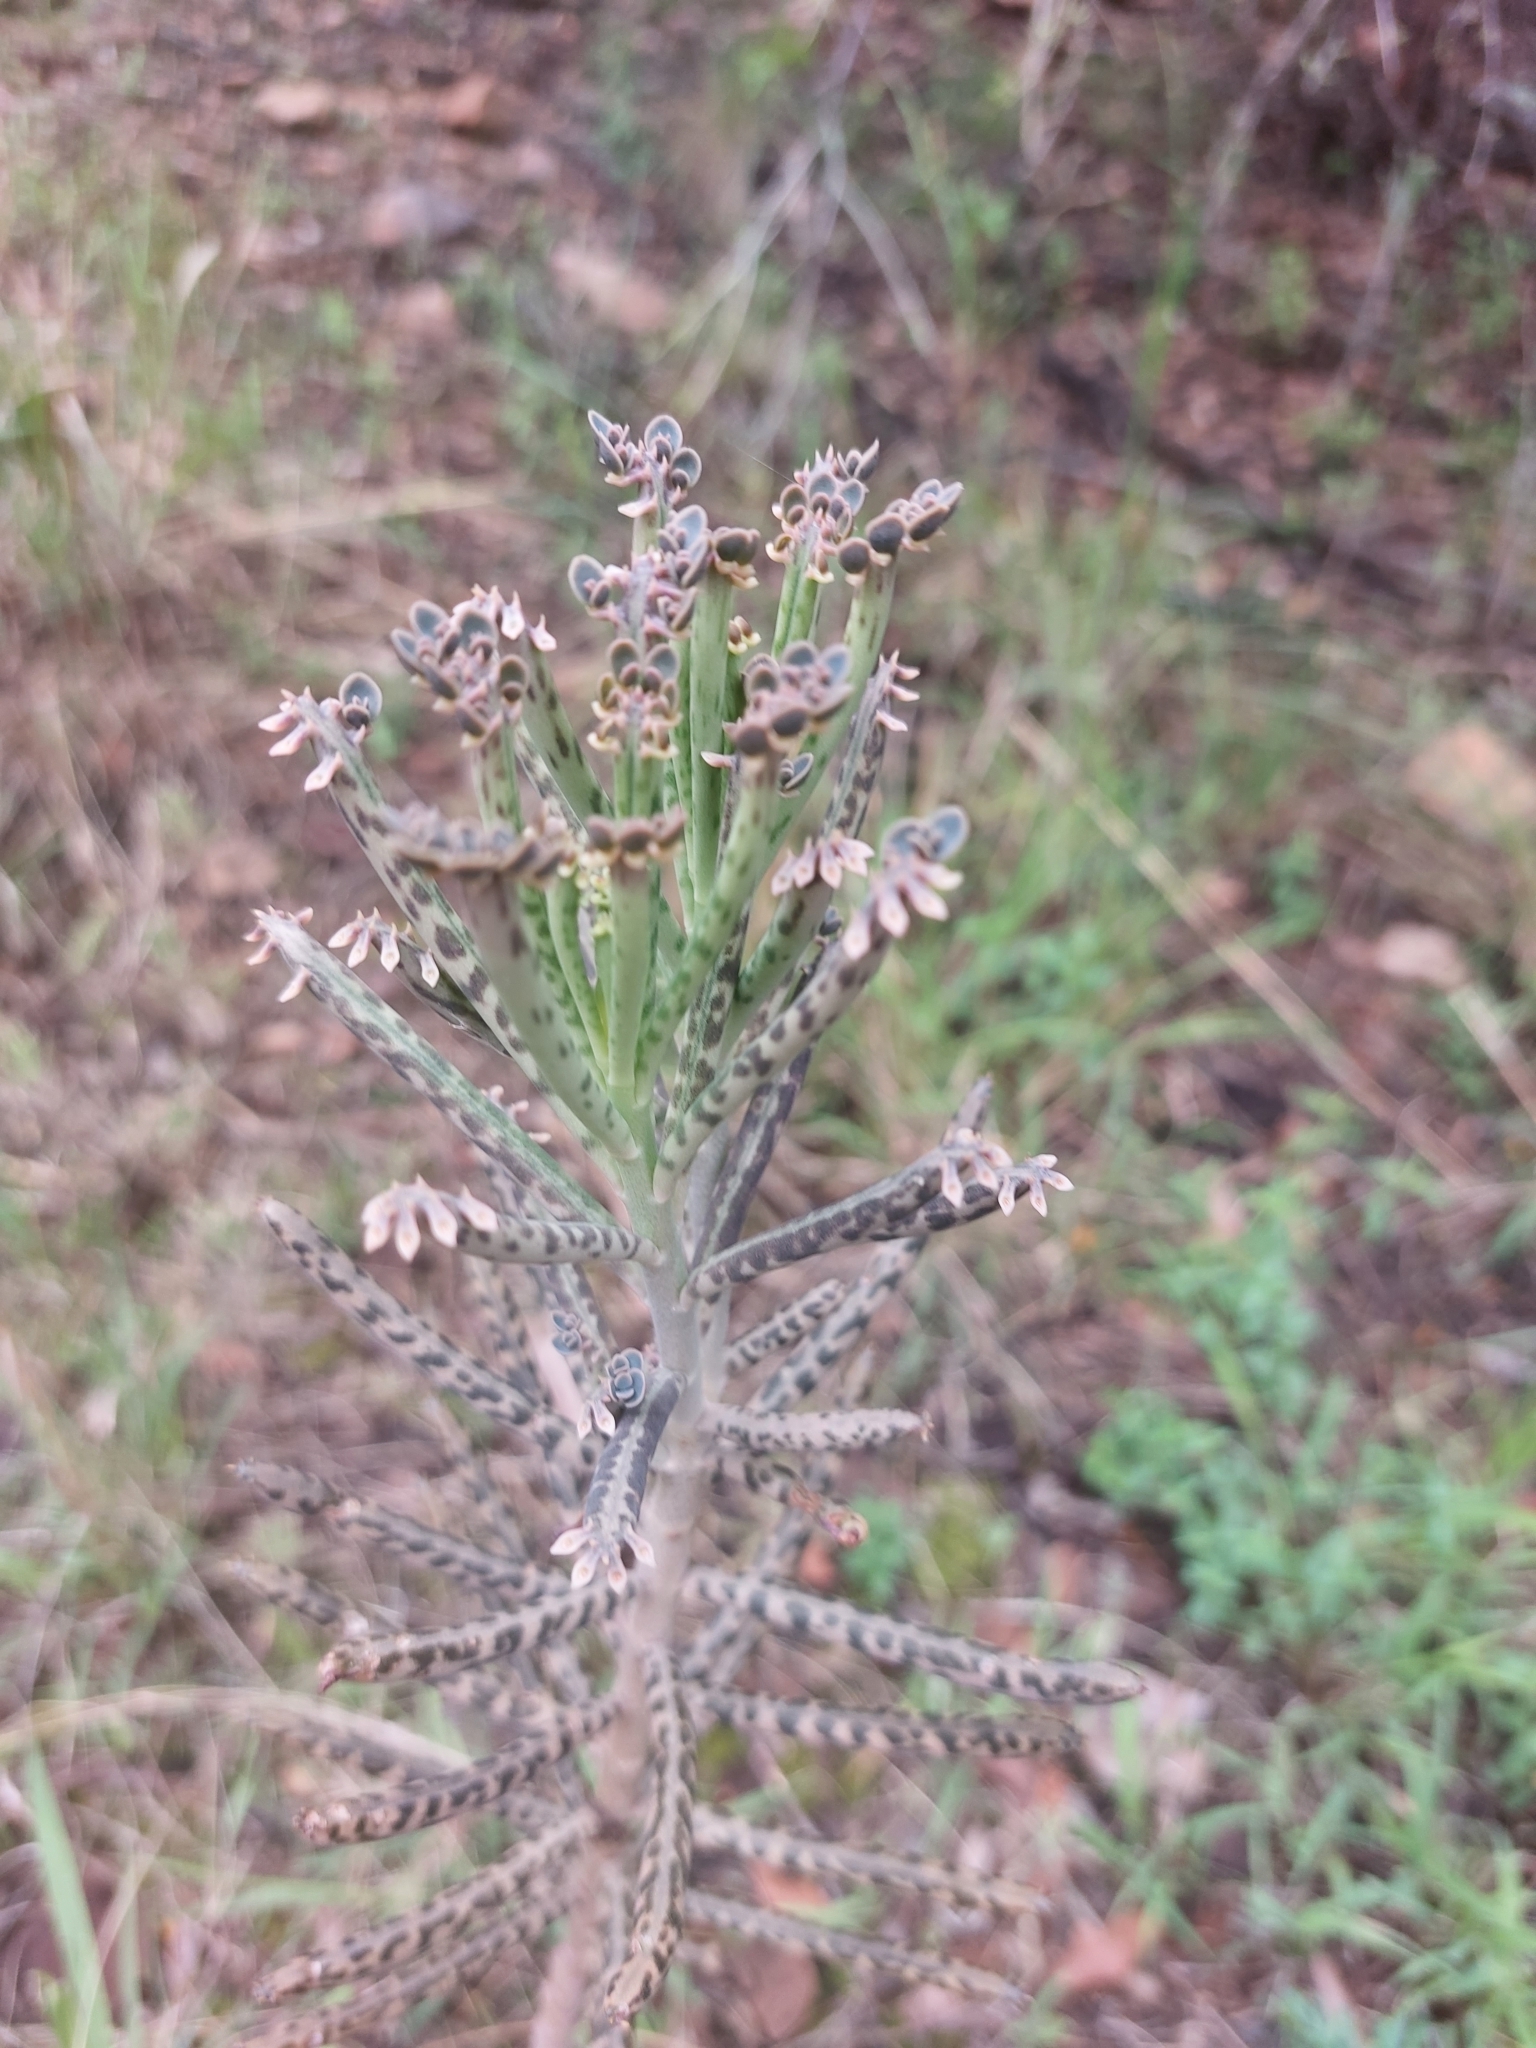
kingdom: Plantae
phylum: Tracheophyta
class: Magnoliopsida
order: Saxifragales
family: Crassulaceae
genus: Kalanchoe
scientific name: Kalanchoe delagoensis
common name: Chandelier plant
